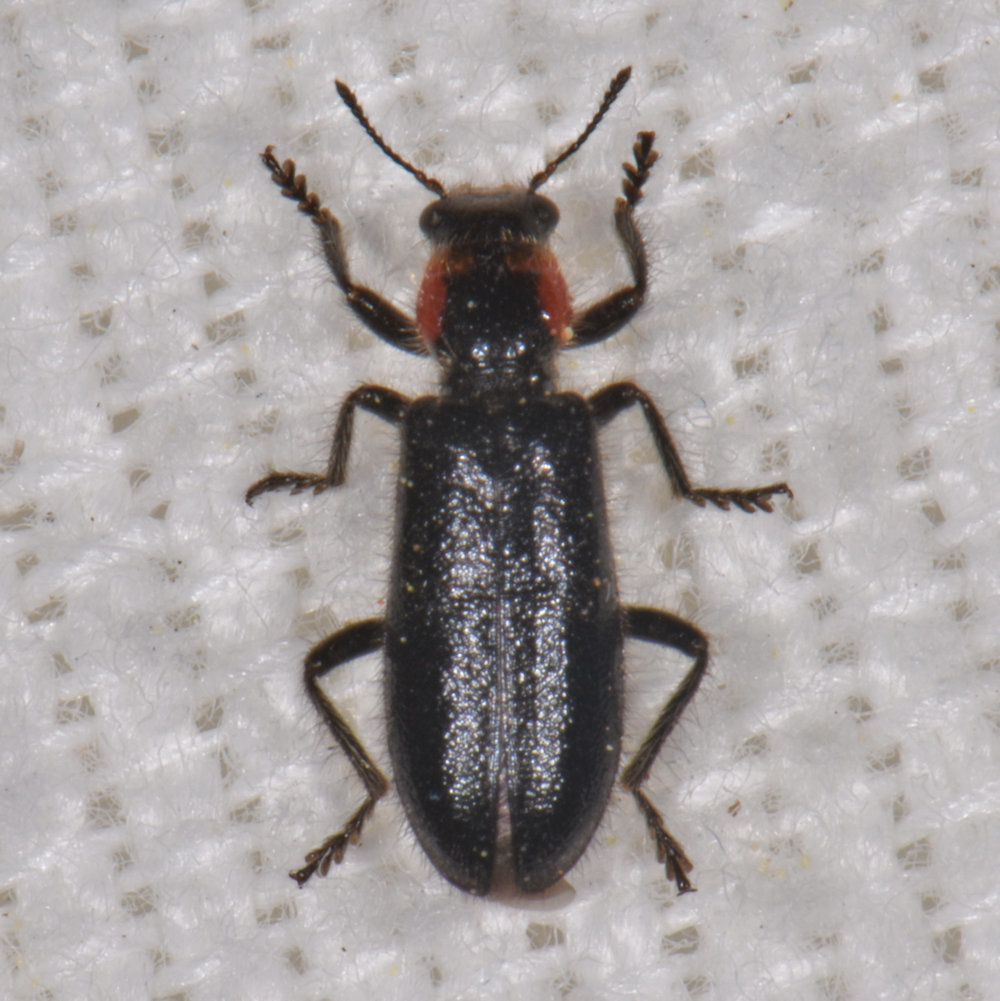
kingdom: Animalia
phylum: Arthropoda
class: Insecta
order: Coleoptera
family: Cleridae
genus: Placopterus
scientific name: Placopterus thoracicus
